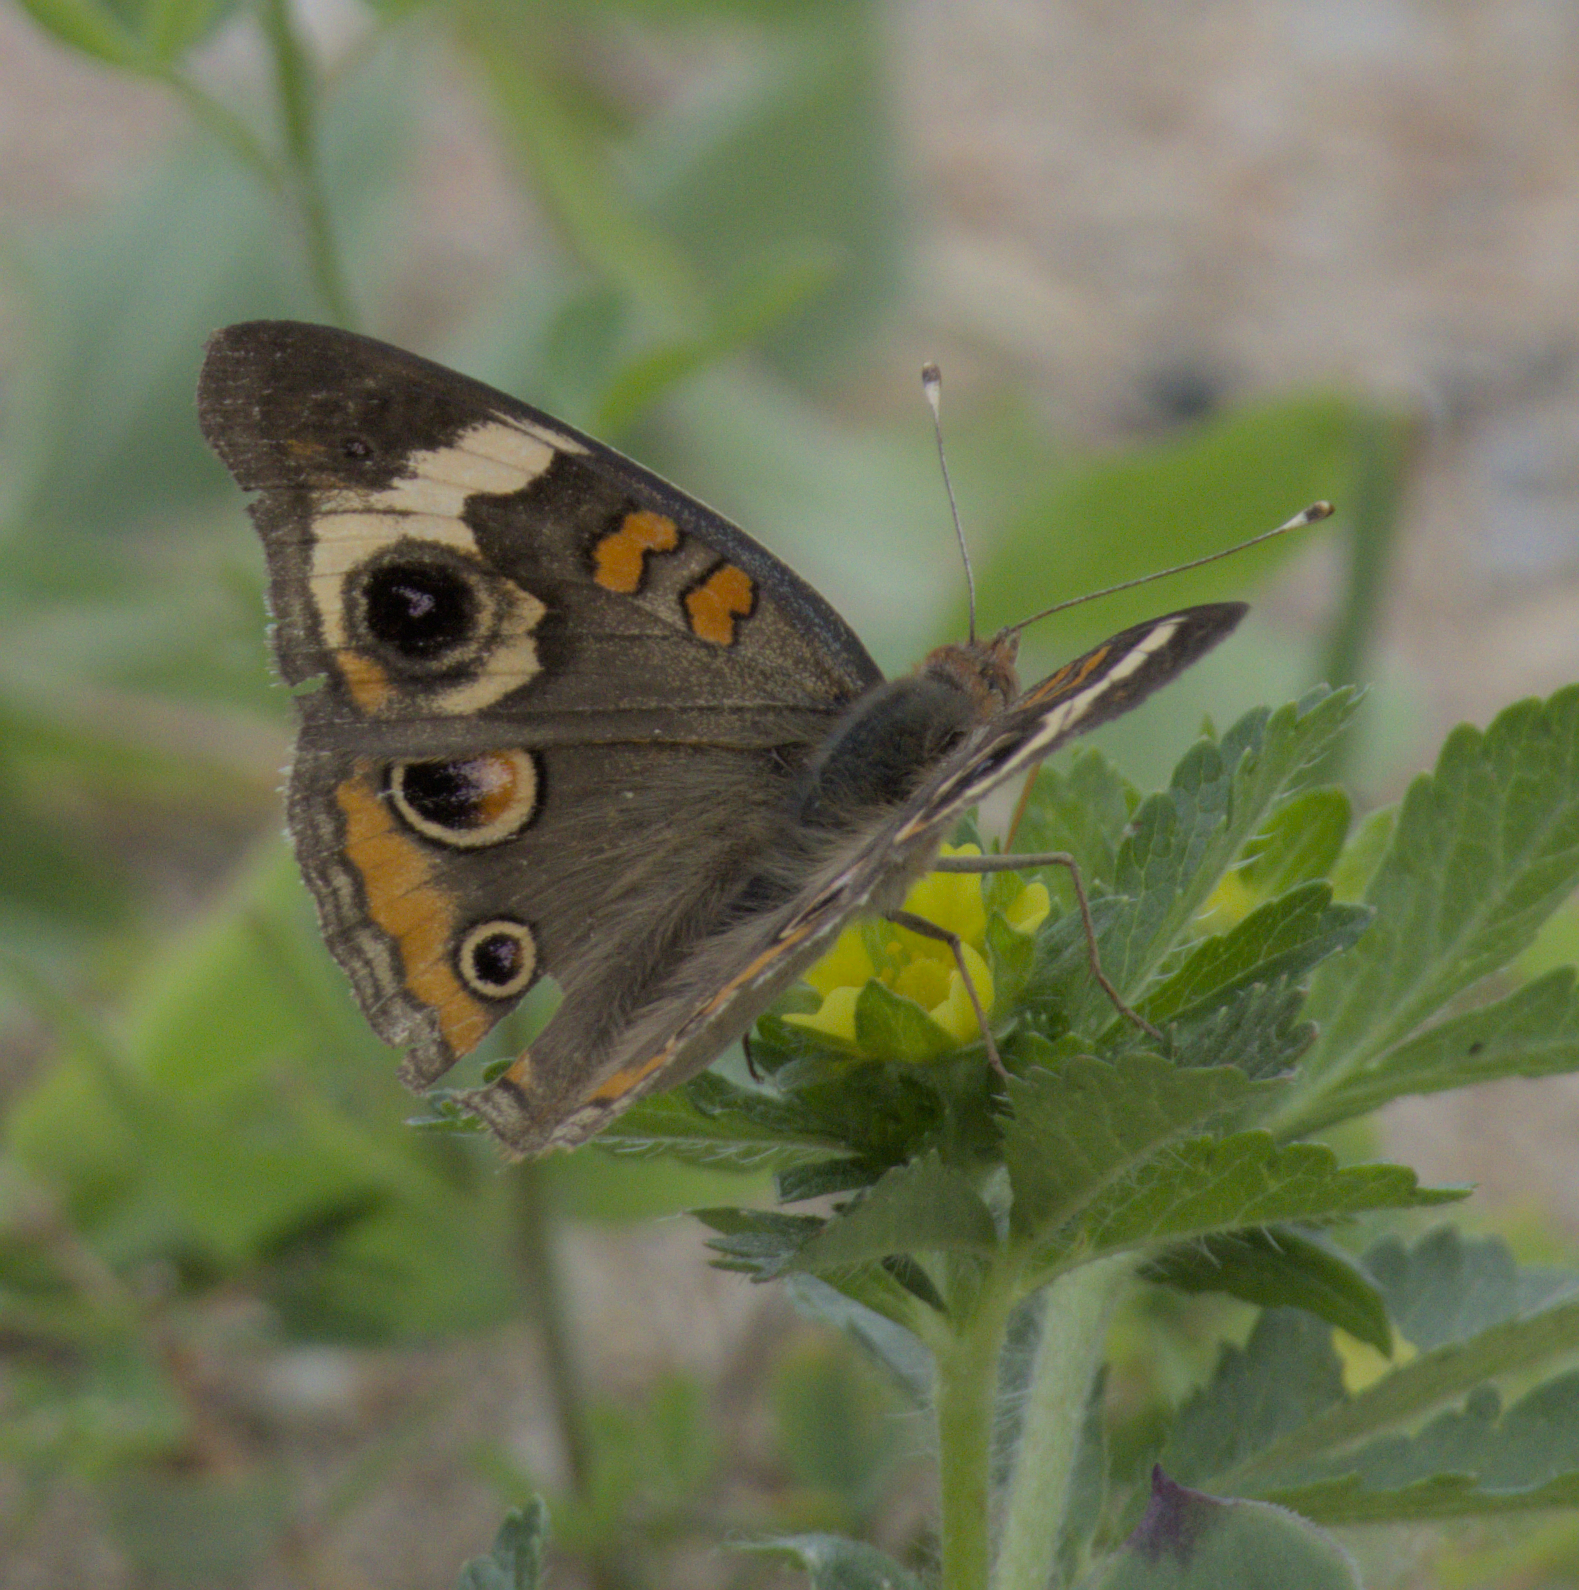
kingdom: Animalia
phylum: Arthropoda
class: Insecta
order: Lepidoptera
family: Nymphalidae
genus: Junonia
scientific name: Junonia coenia
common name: Common buckeye
